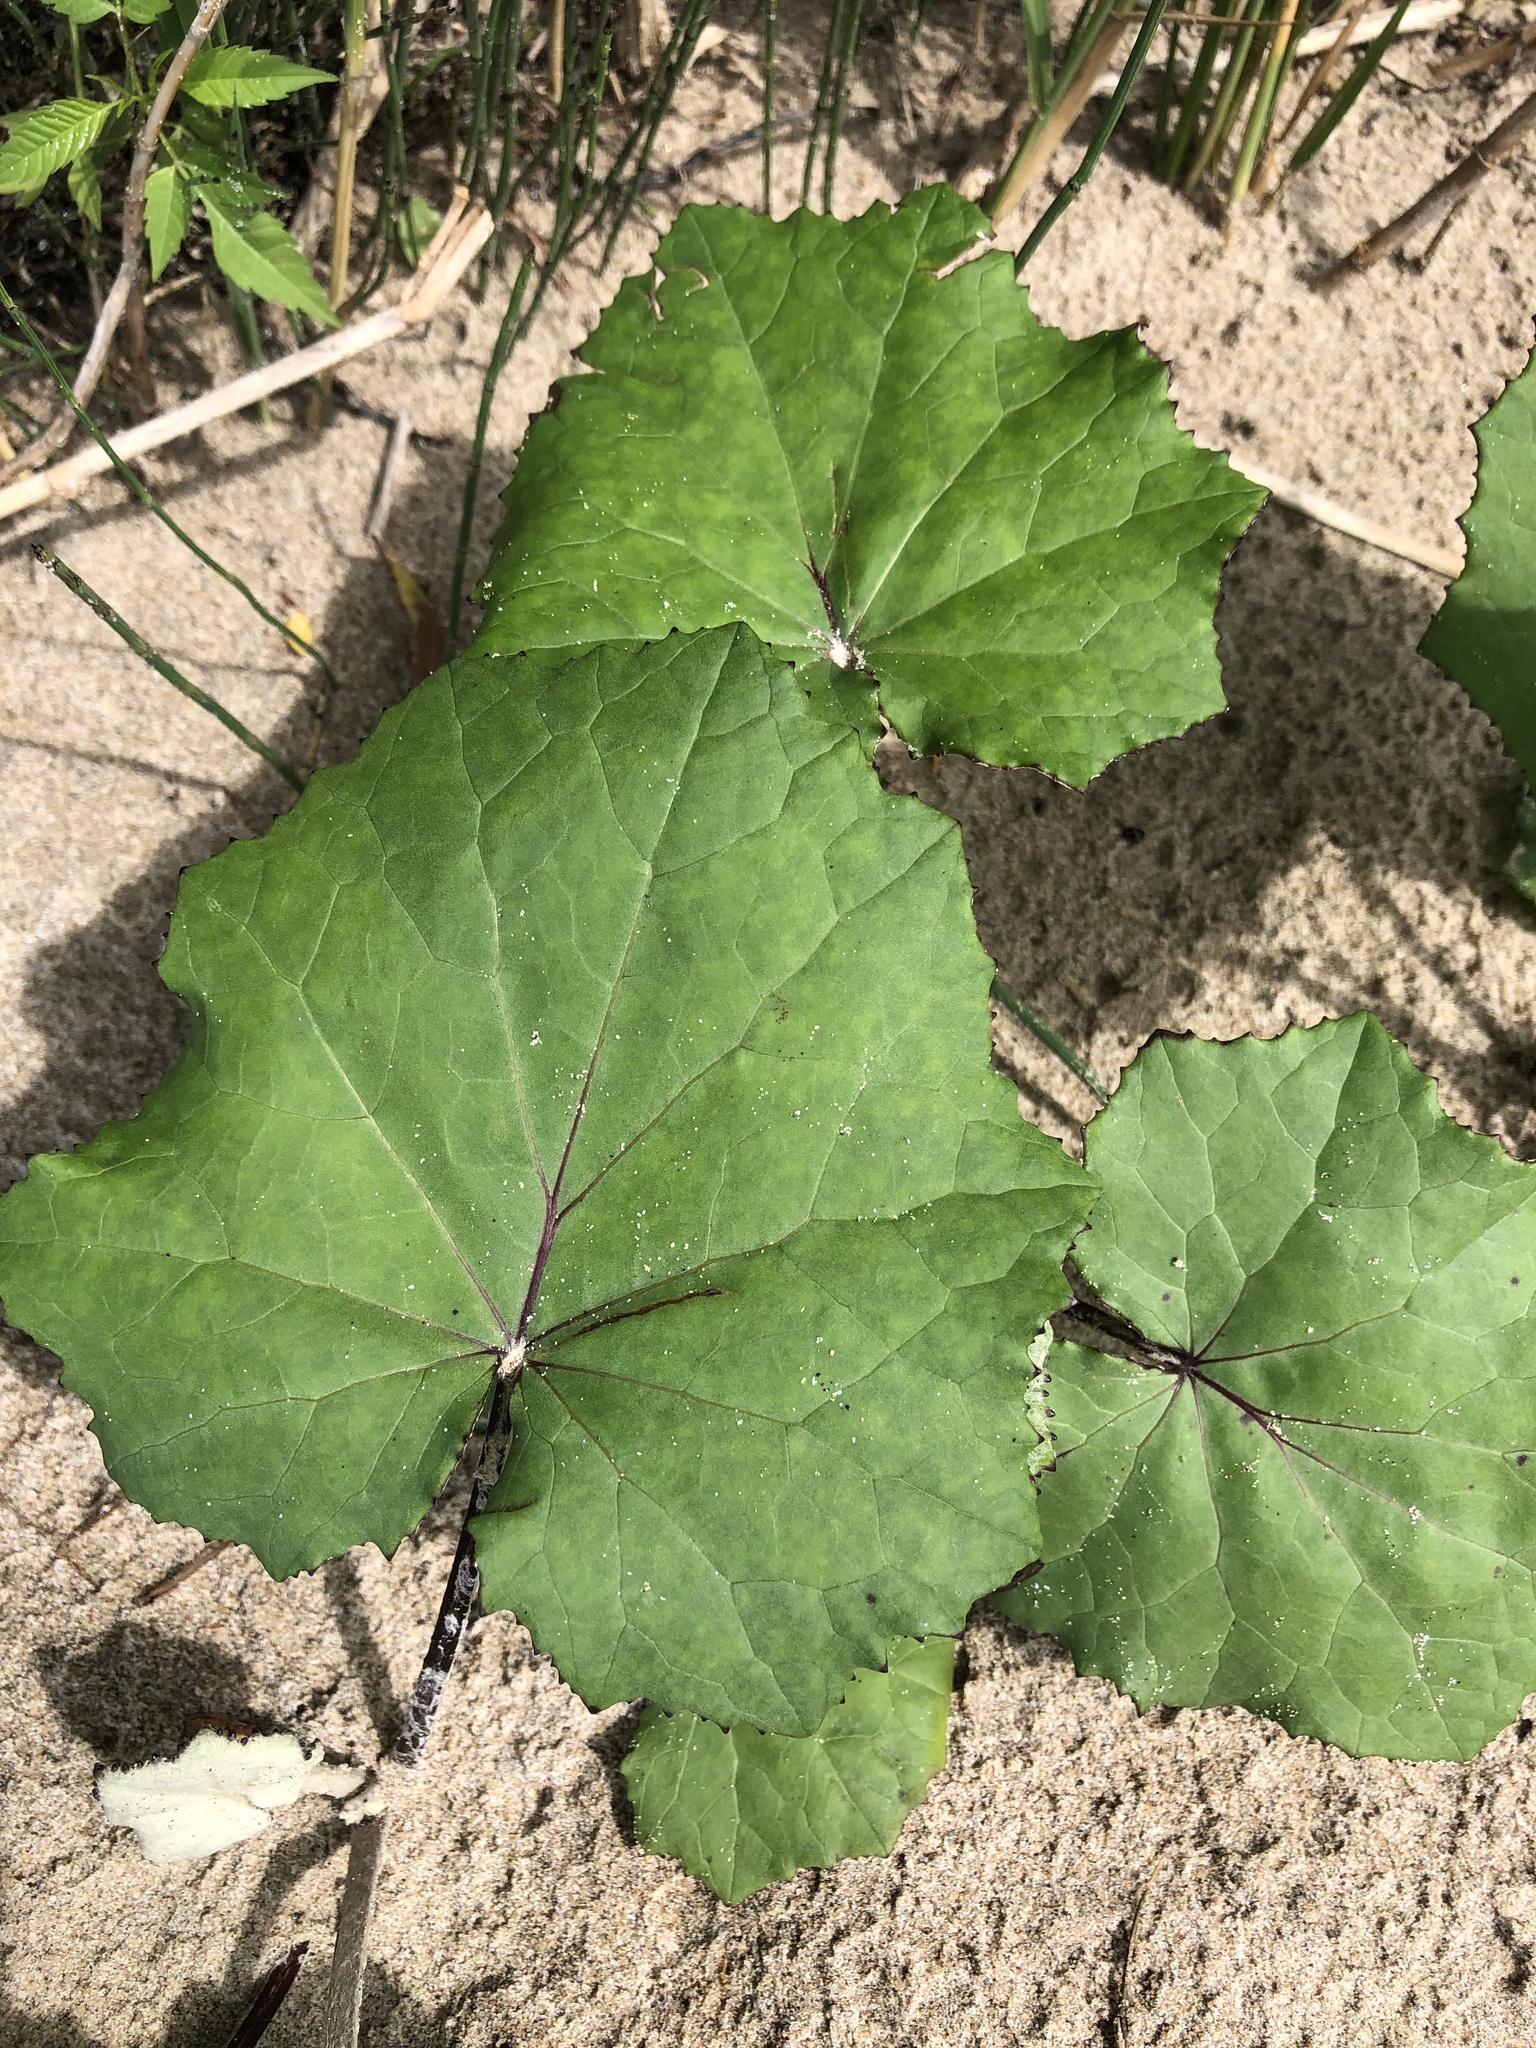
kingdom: Plantae
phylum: Tracheophyta
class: Magnoliopsida
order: Asterales
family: Asteraceae
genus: Tussilago
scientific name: Tussilago farfara
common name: Coltsfoot
